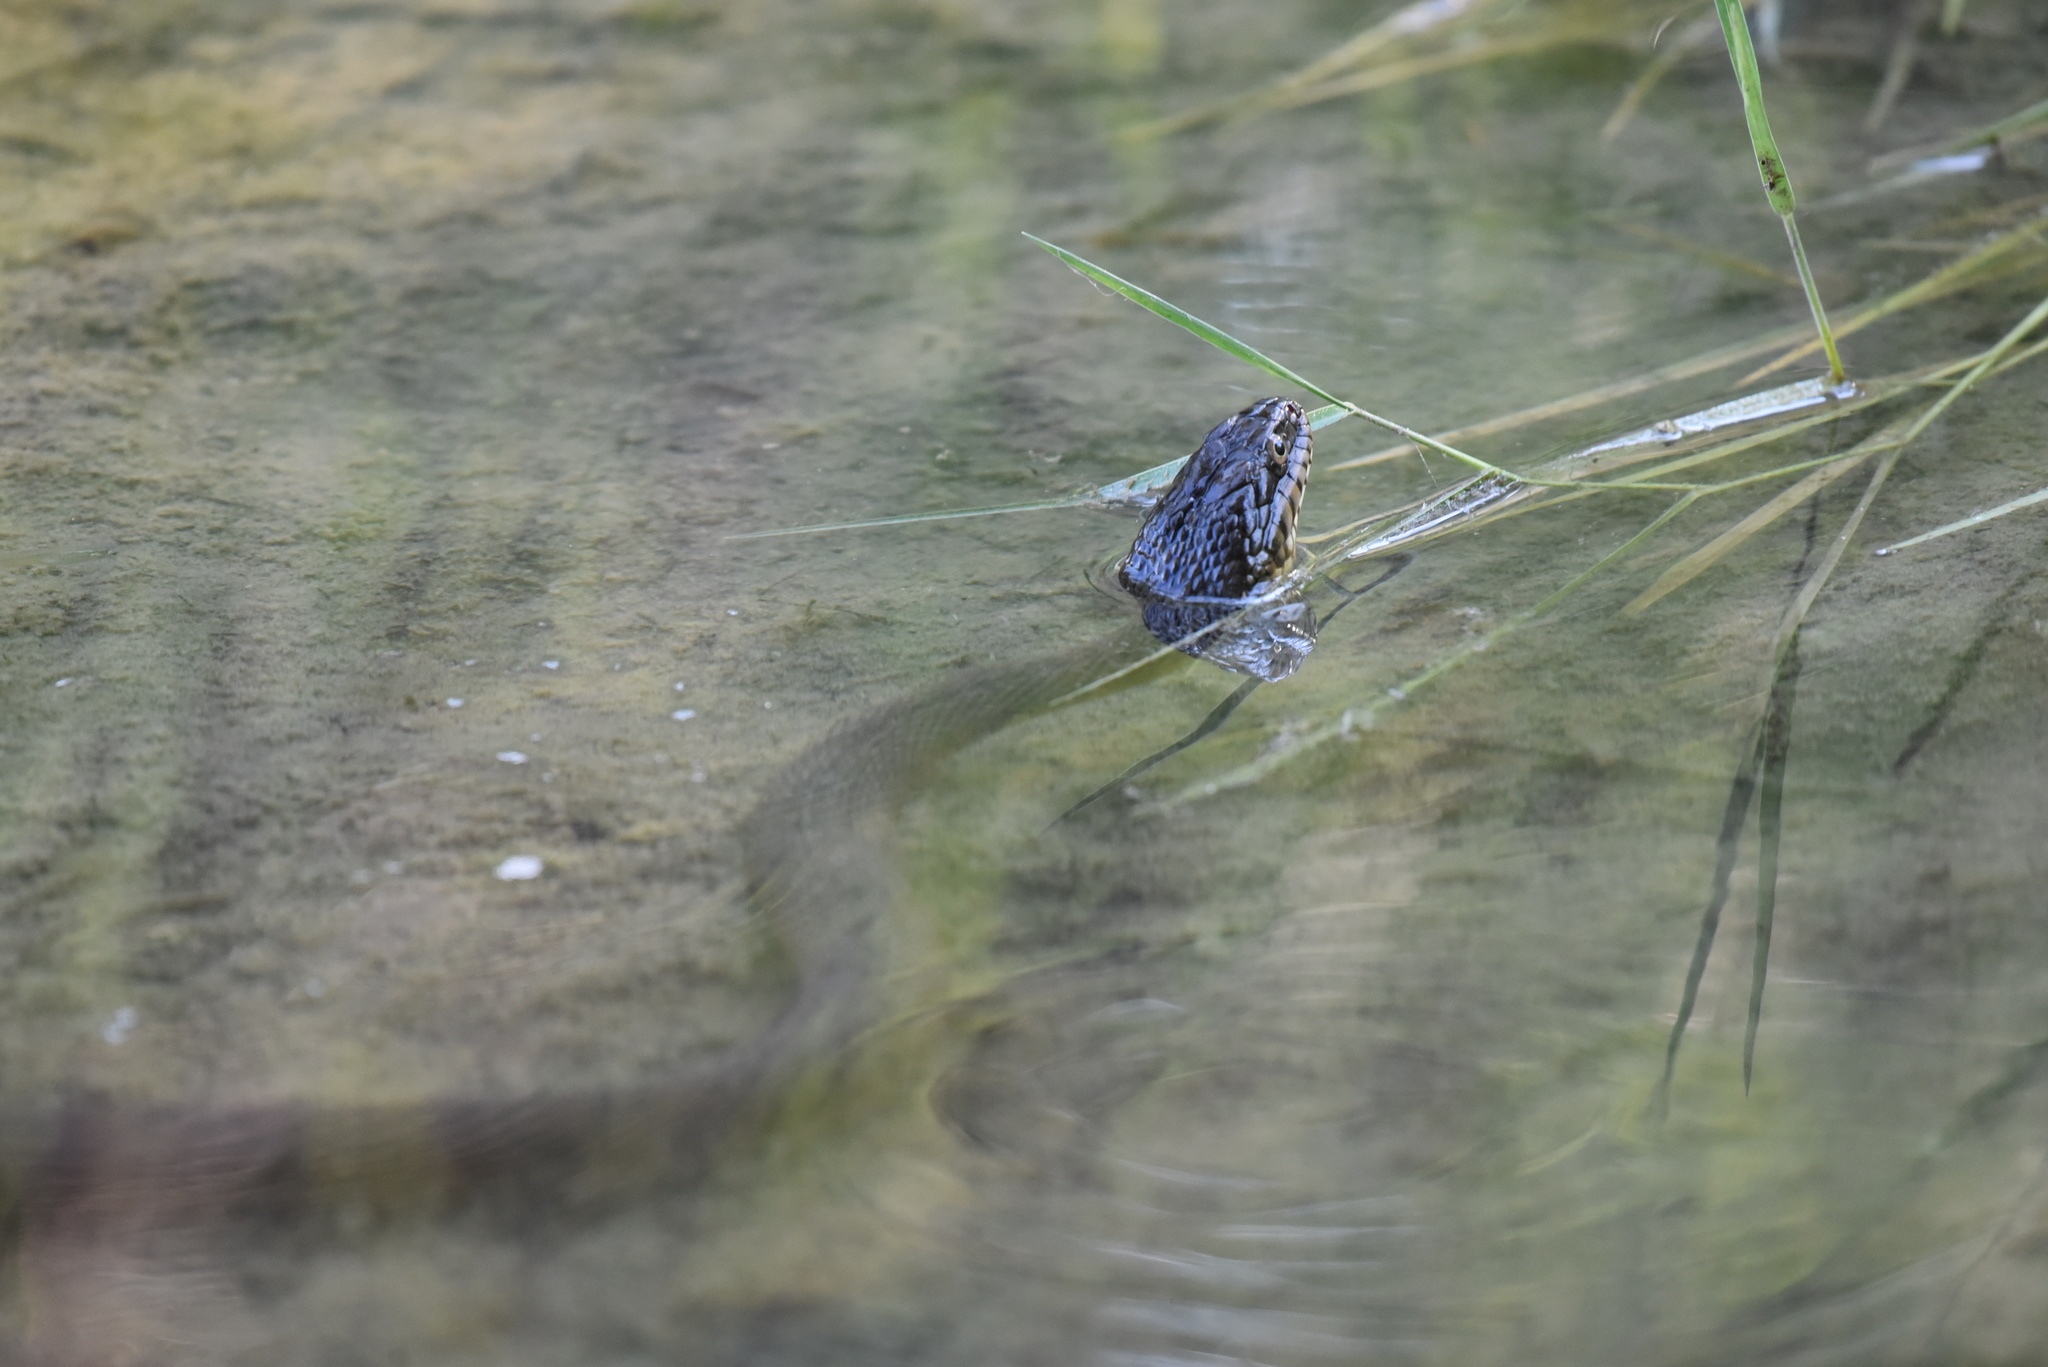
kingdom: Animalia
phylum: Chordata
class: Squamata
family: Colubridae
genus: Nerodia
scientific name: Nerodia erythrogaster
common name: Plainbelly water snake
